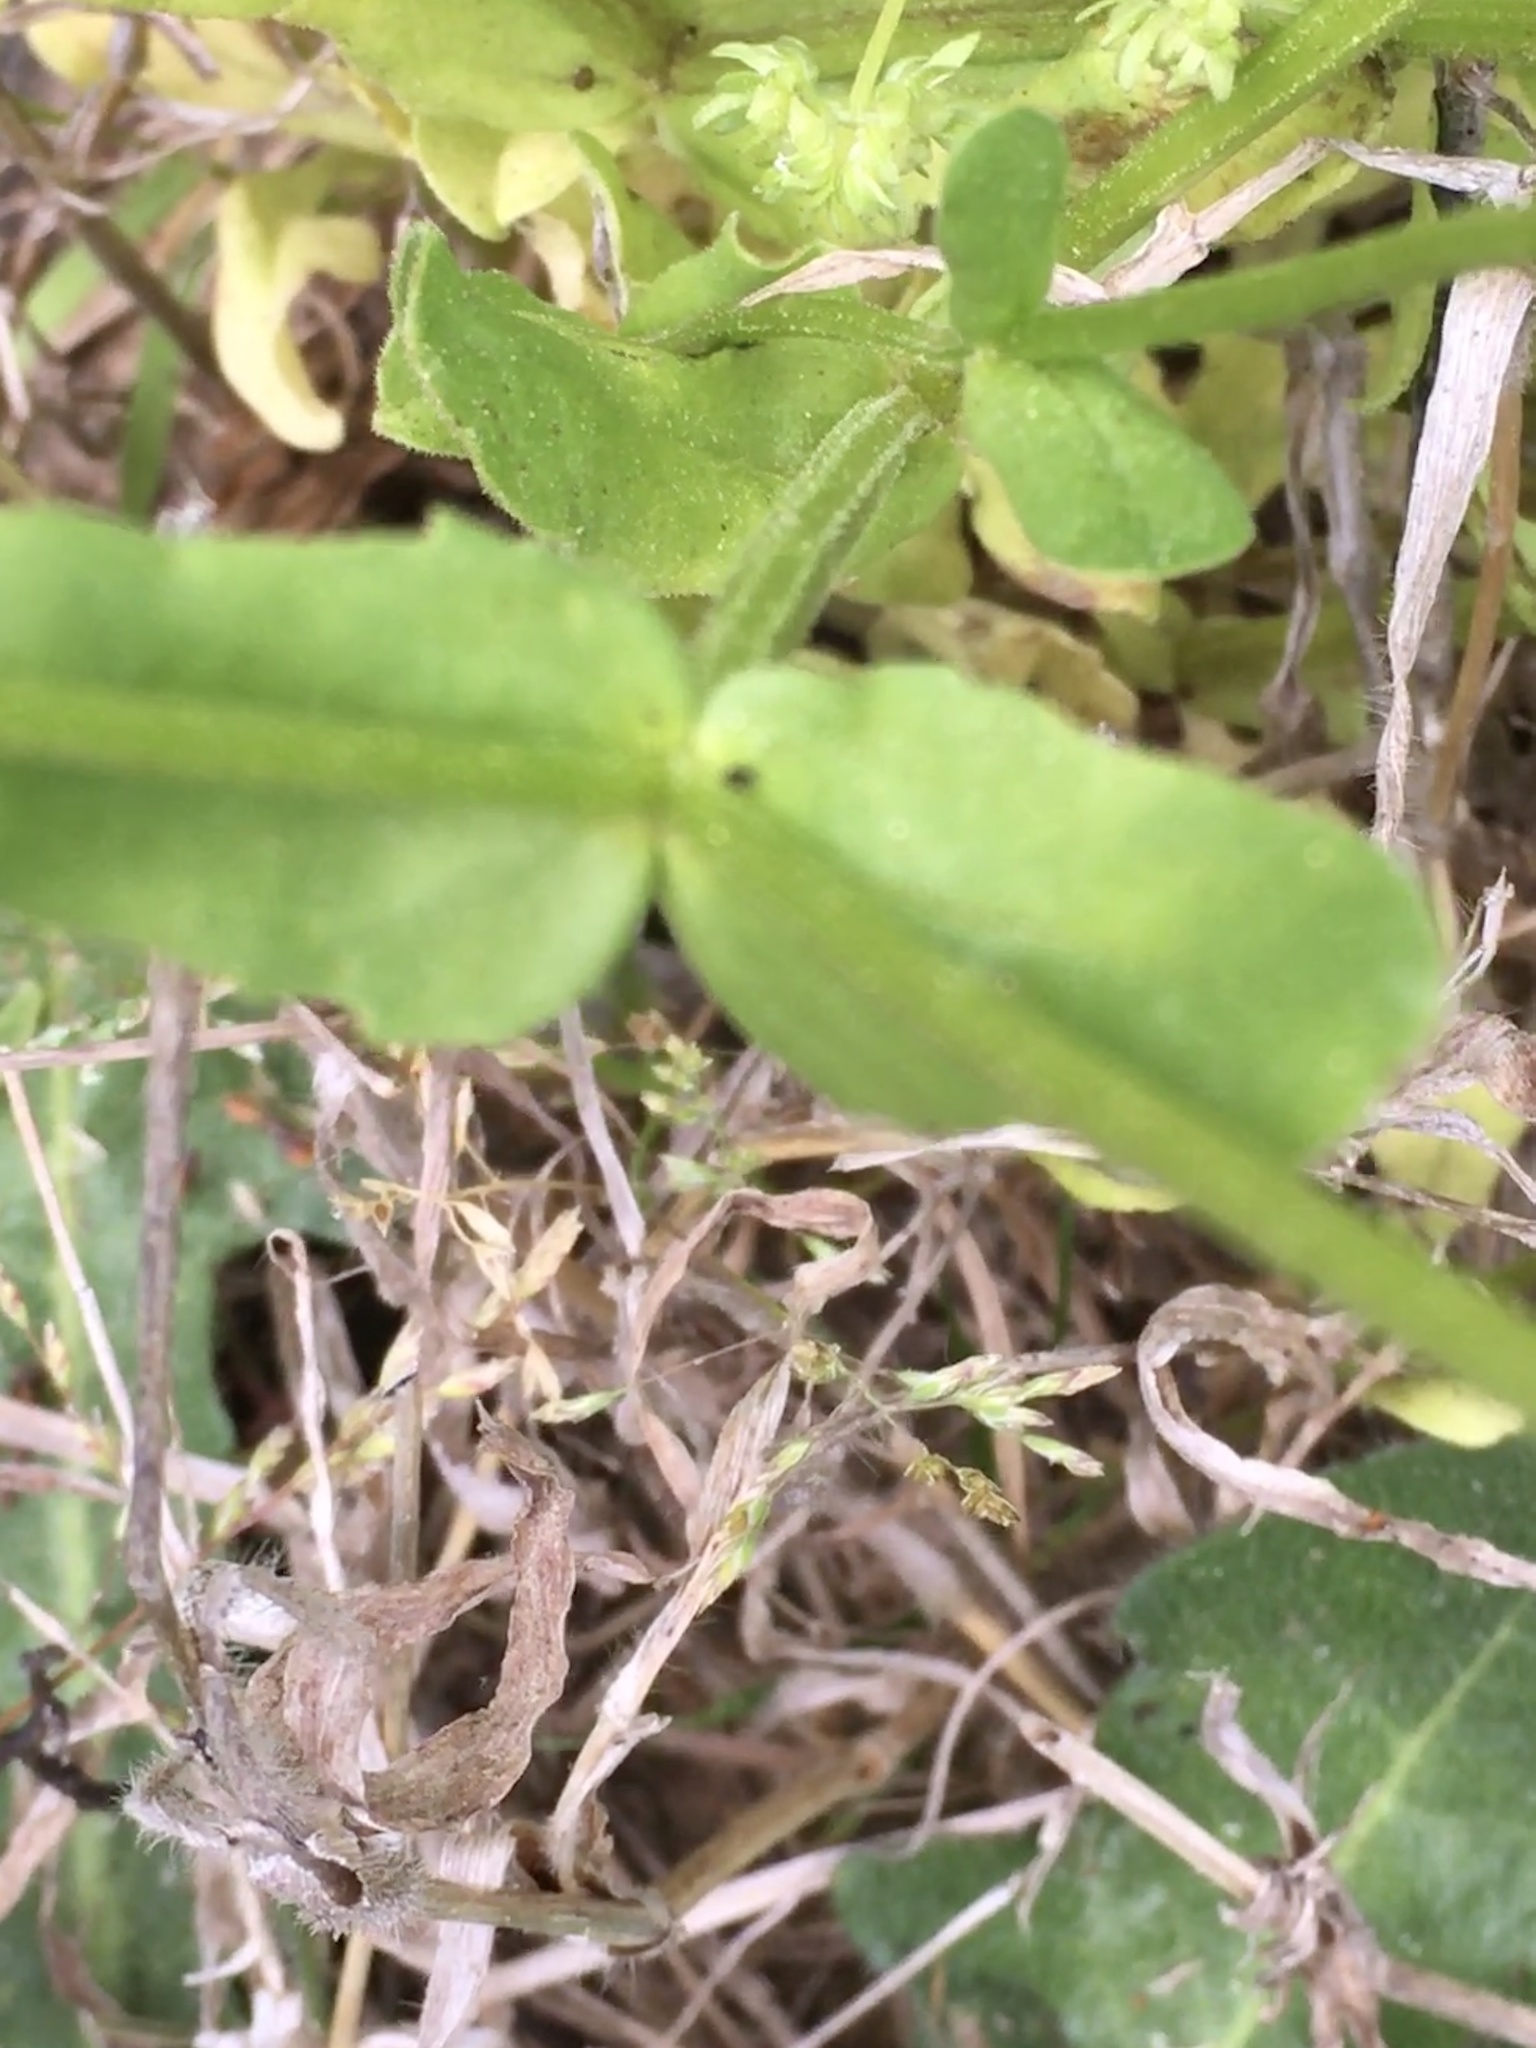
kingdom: Plantae
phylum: Tracheophyta
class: Magnoliopsida
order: Dipsacales
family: Caprifoliaceae
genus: Valerianella
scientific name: Valerianella radiata
